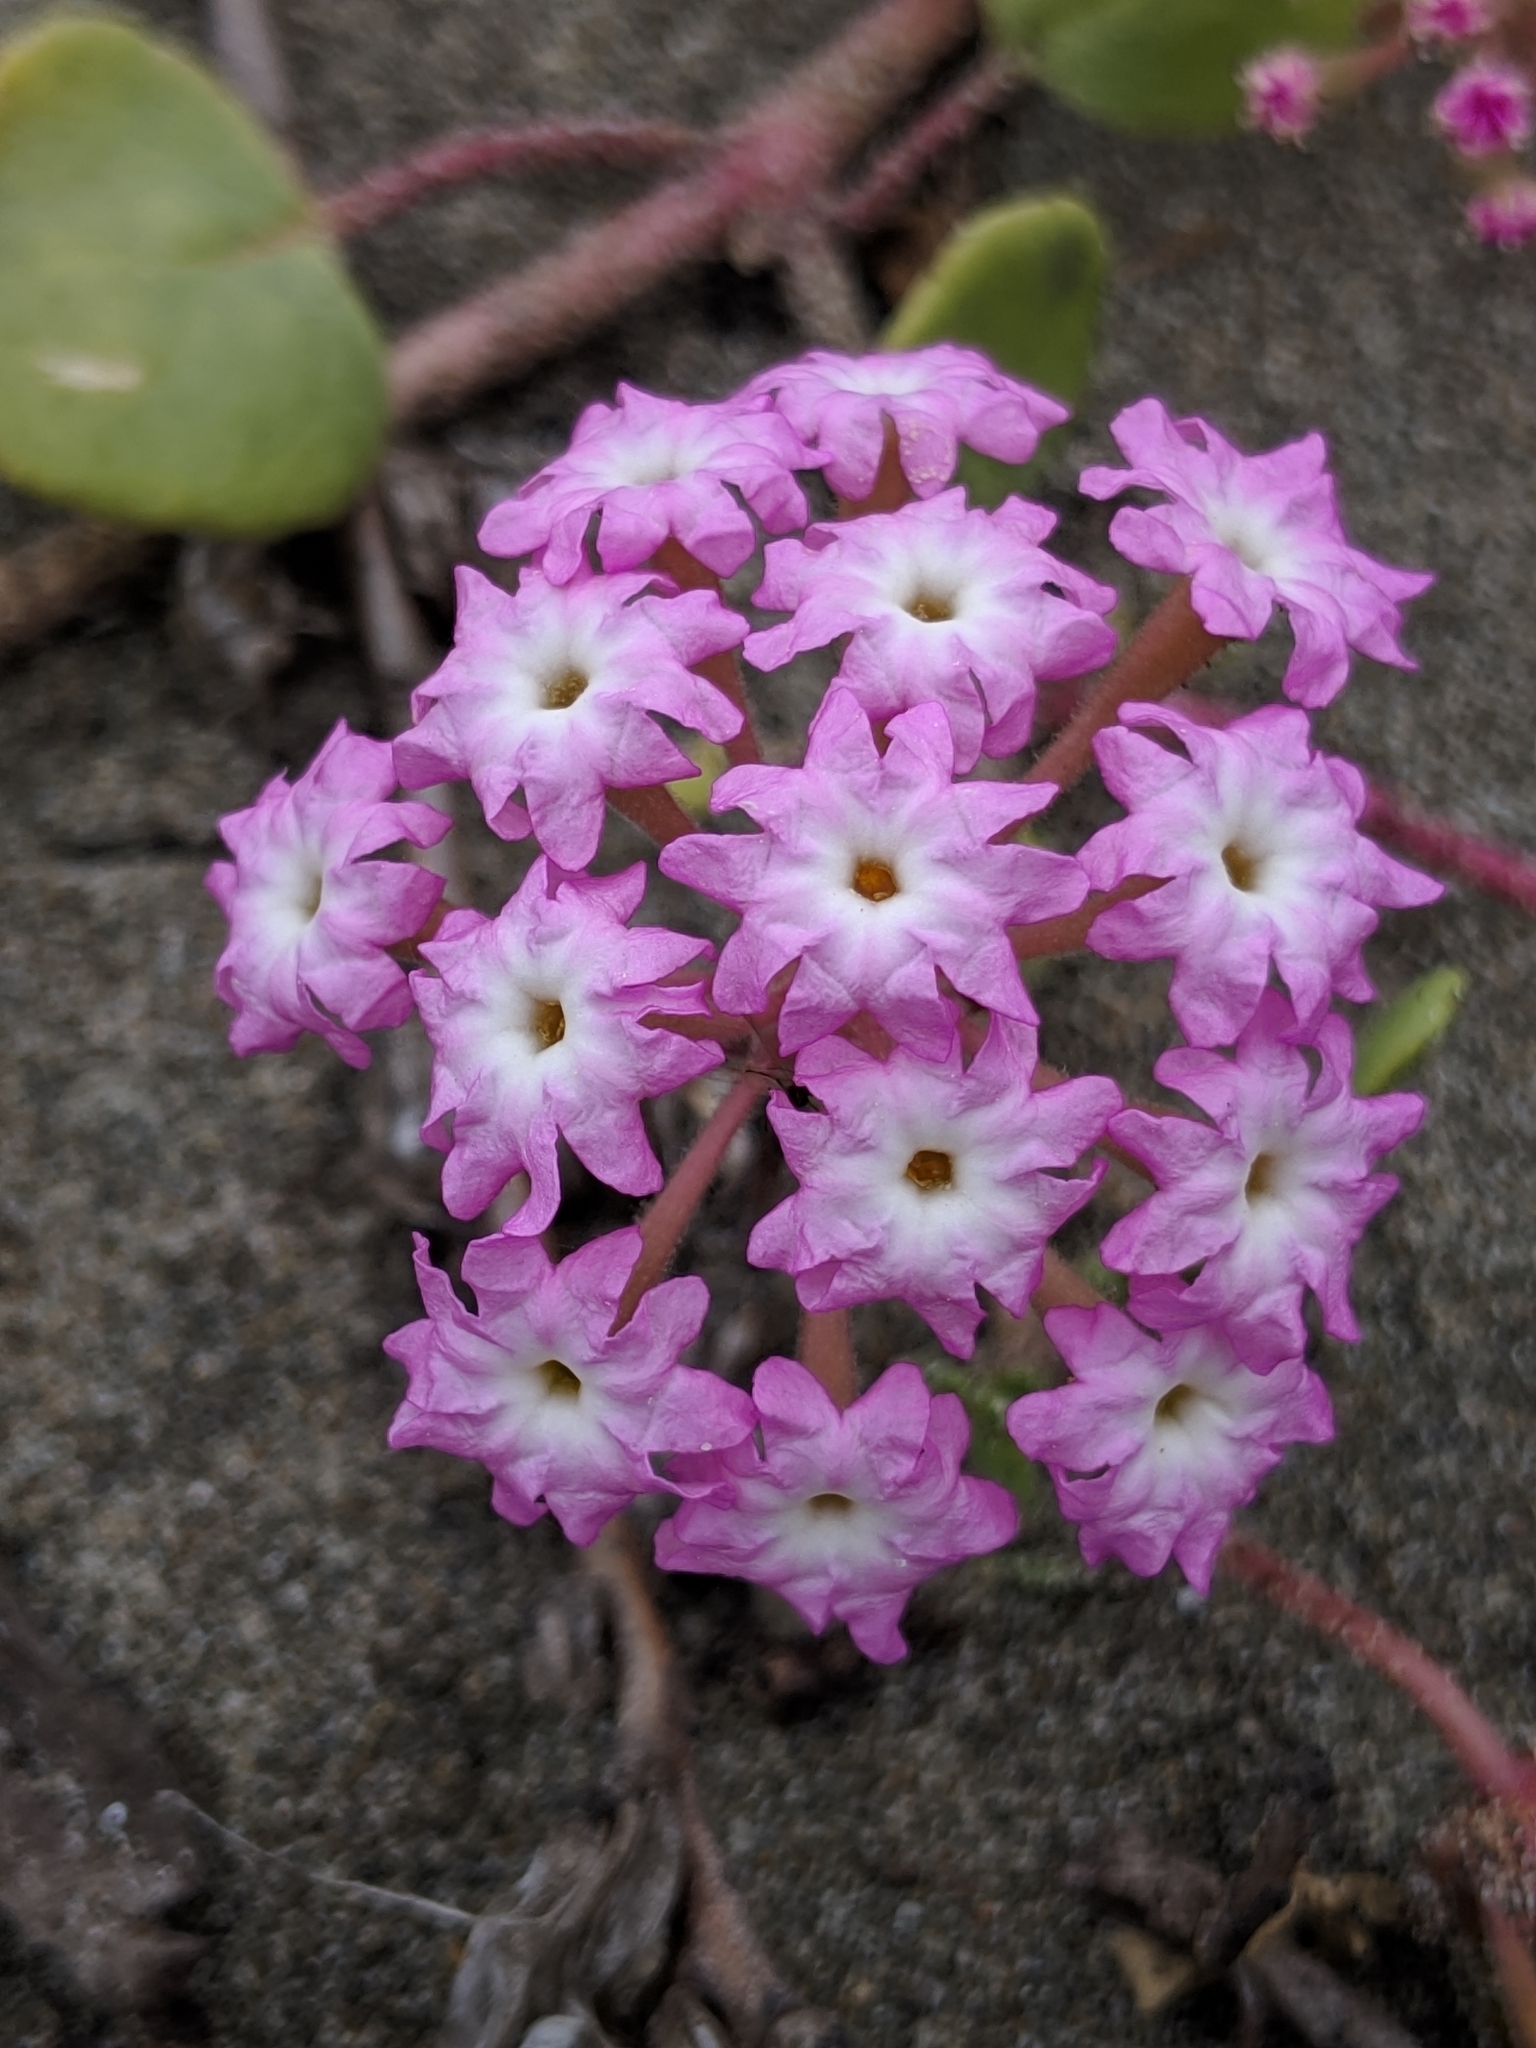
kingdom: Plantae
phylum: Tracheophyta
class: Magnoliopsida
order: Caryophyllales
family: Nyctaginaceae
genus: Abronia
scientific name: Abronia umbellata
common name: Sand-verbena
